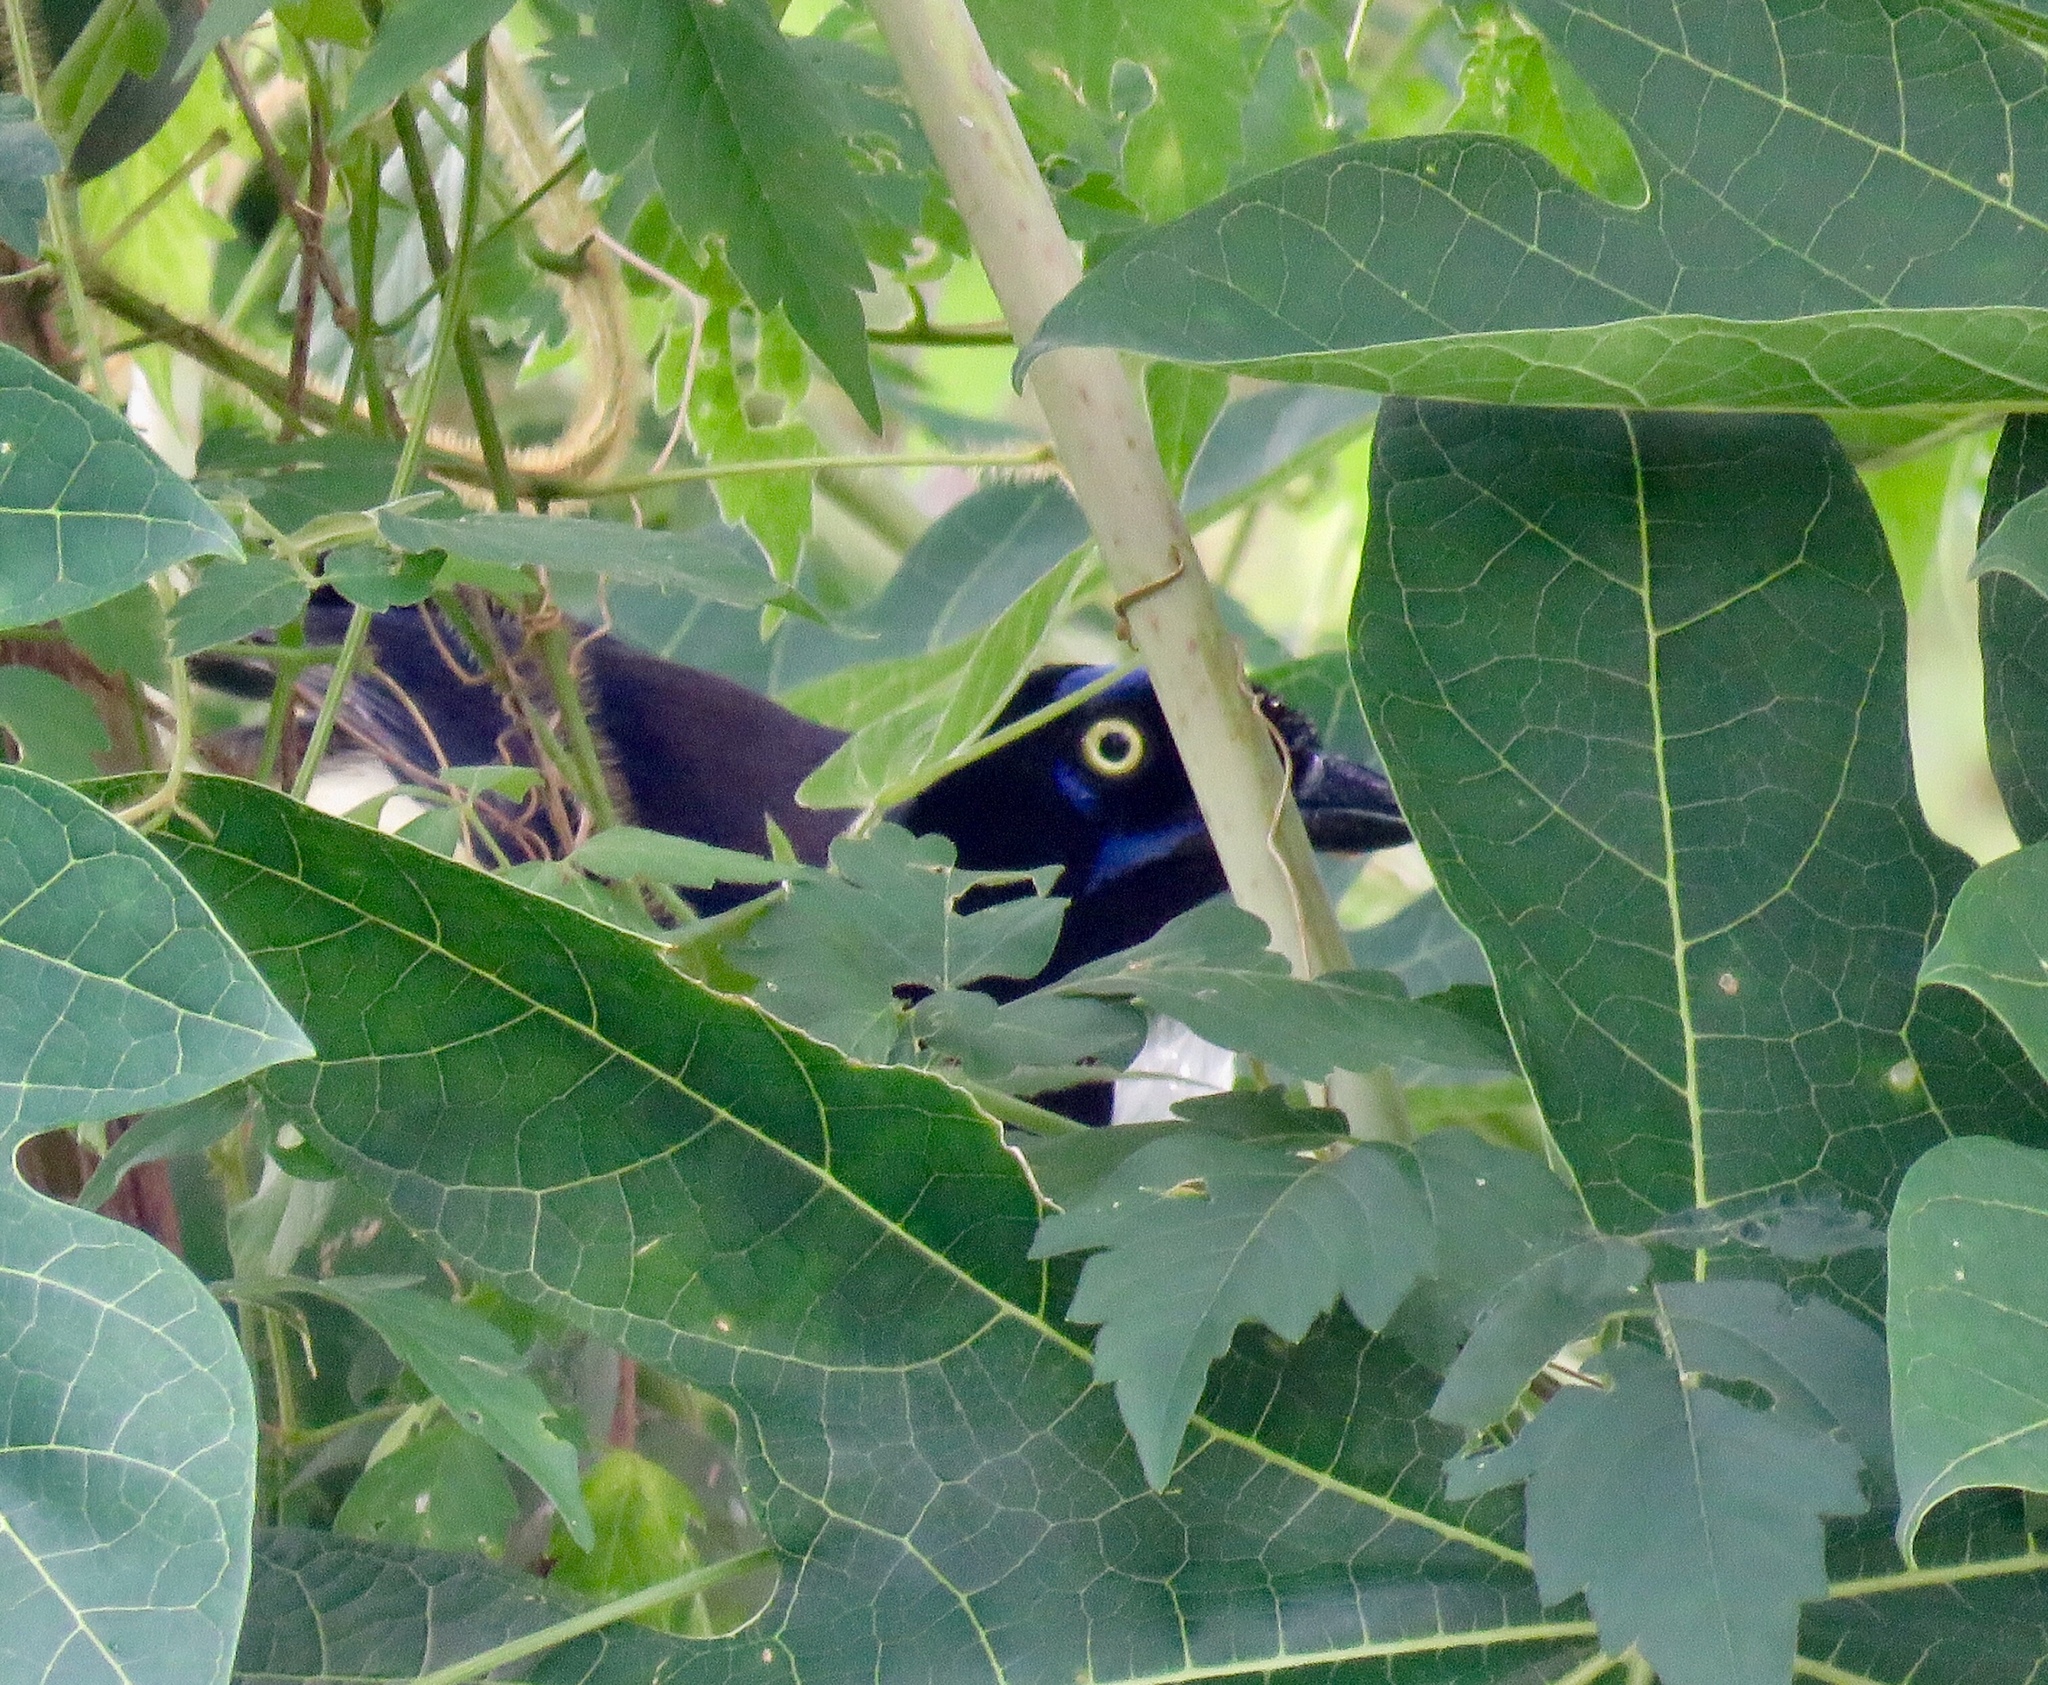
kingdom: Animalia
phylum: Chordata
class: Aves
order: Passeriformes
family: Corvidae
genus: Cyanocorax
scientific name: Cyanocorax affinis
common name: Black-chested jay
